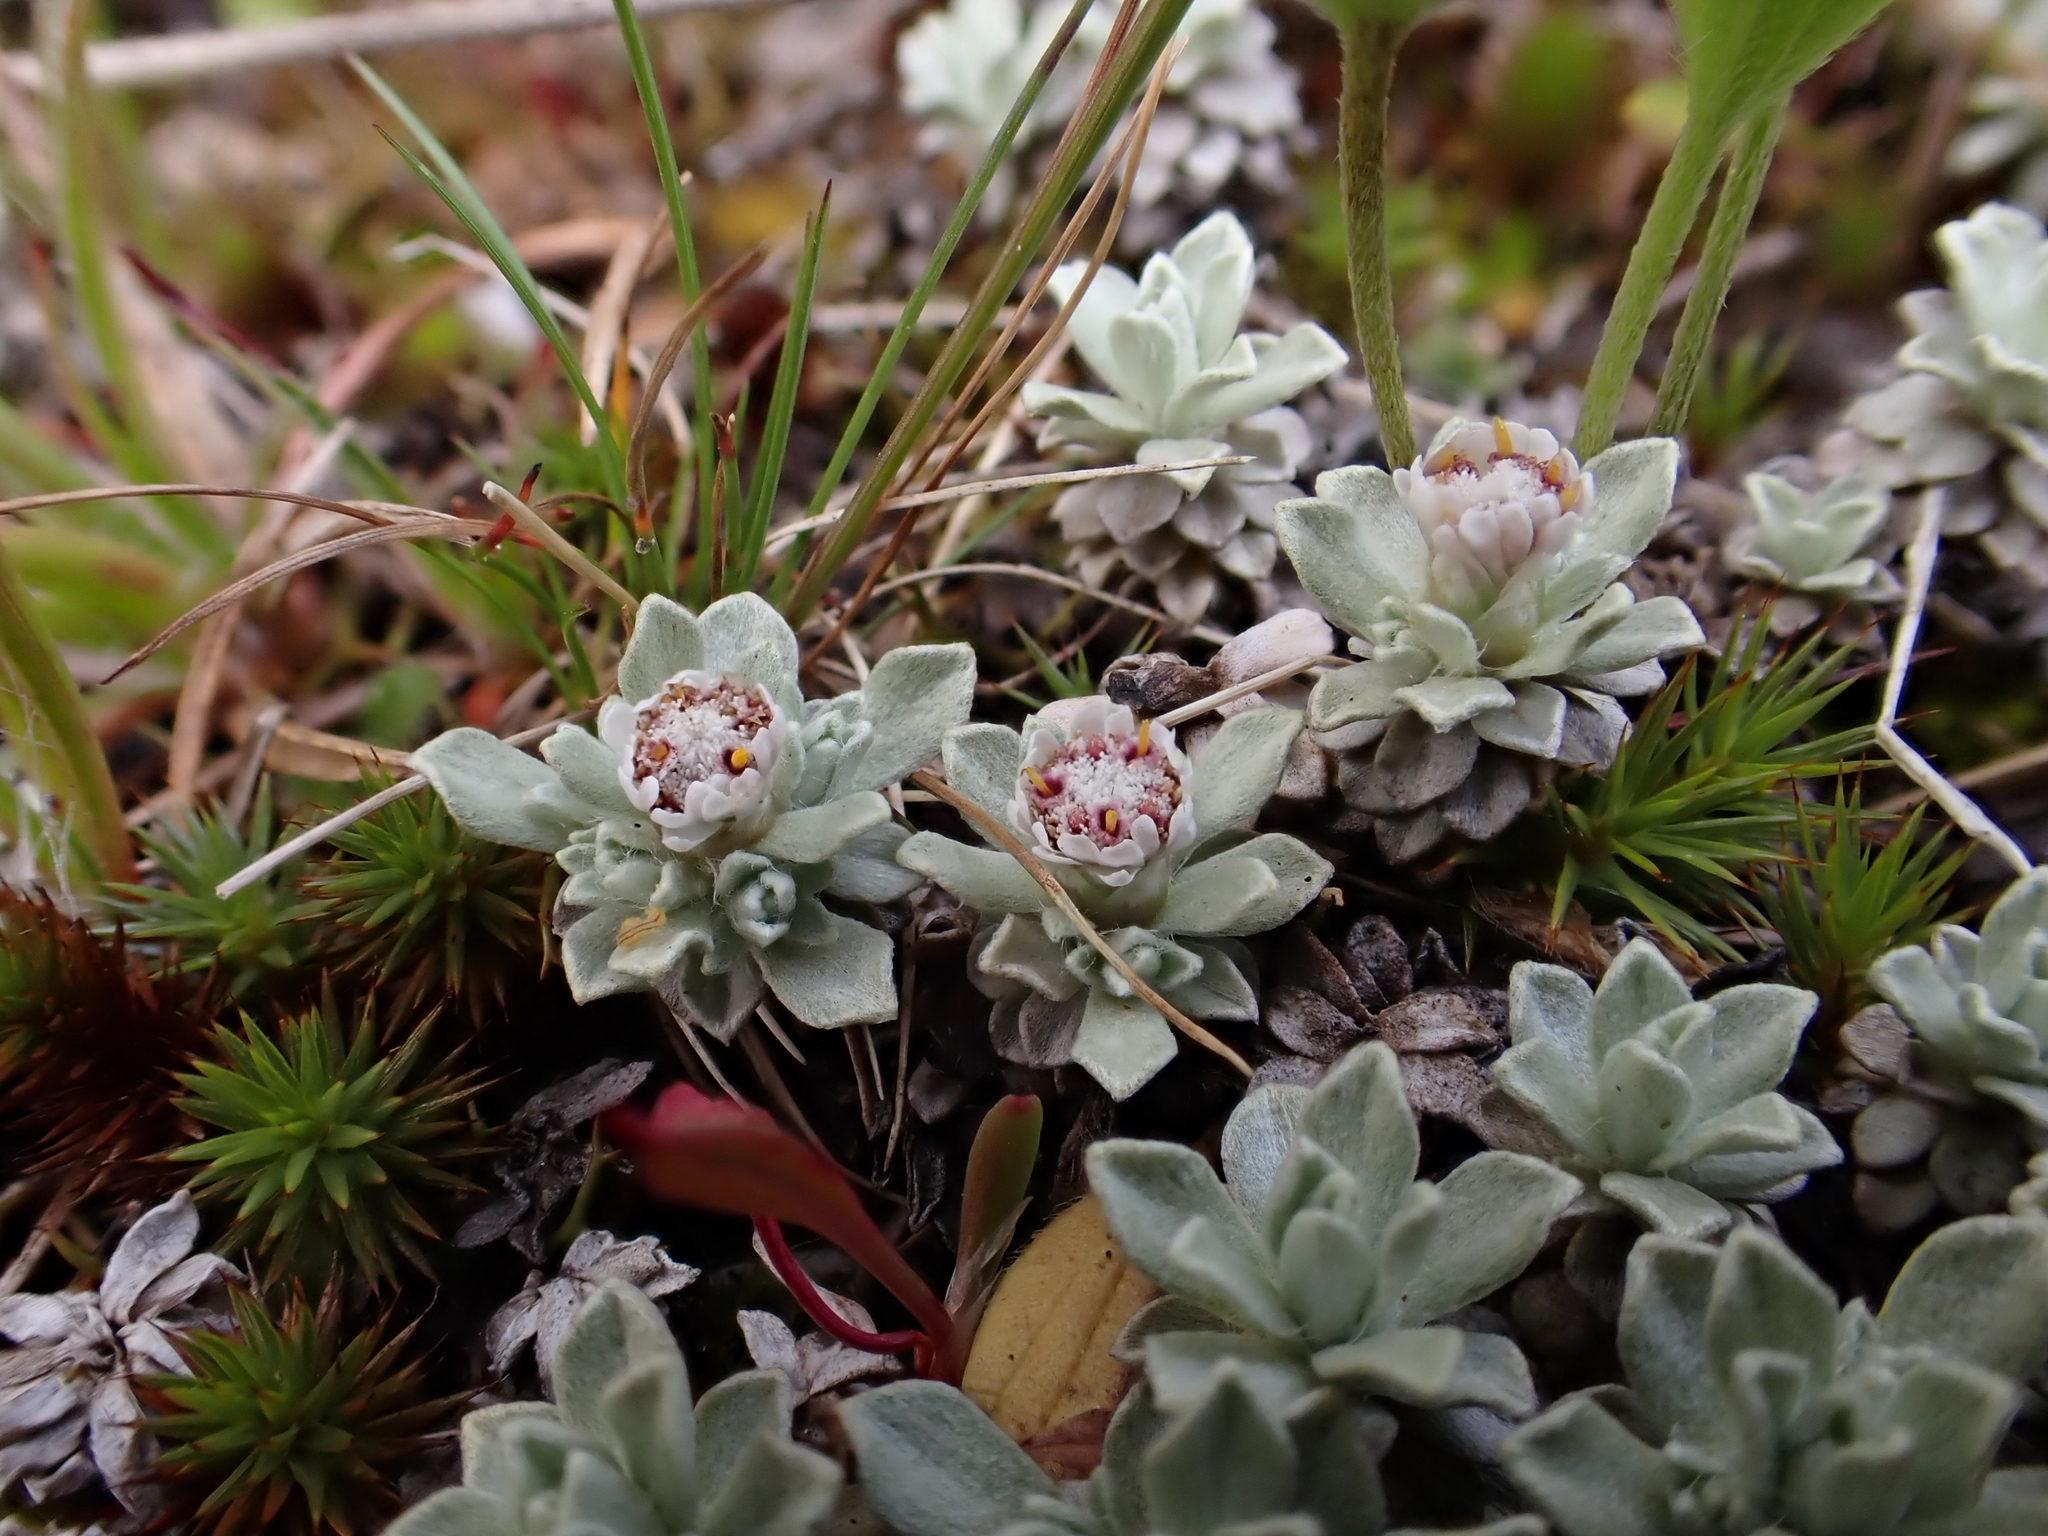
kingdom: Plantae
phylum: Tracheophyta
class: Magnoliopsida
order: Asterales
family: Asteraceae
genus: Ewartia
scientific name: Ewartia nubigena
